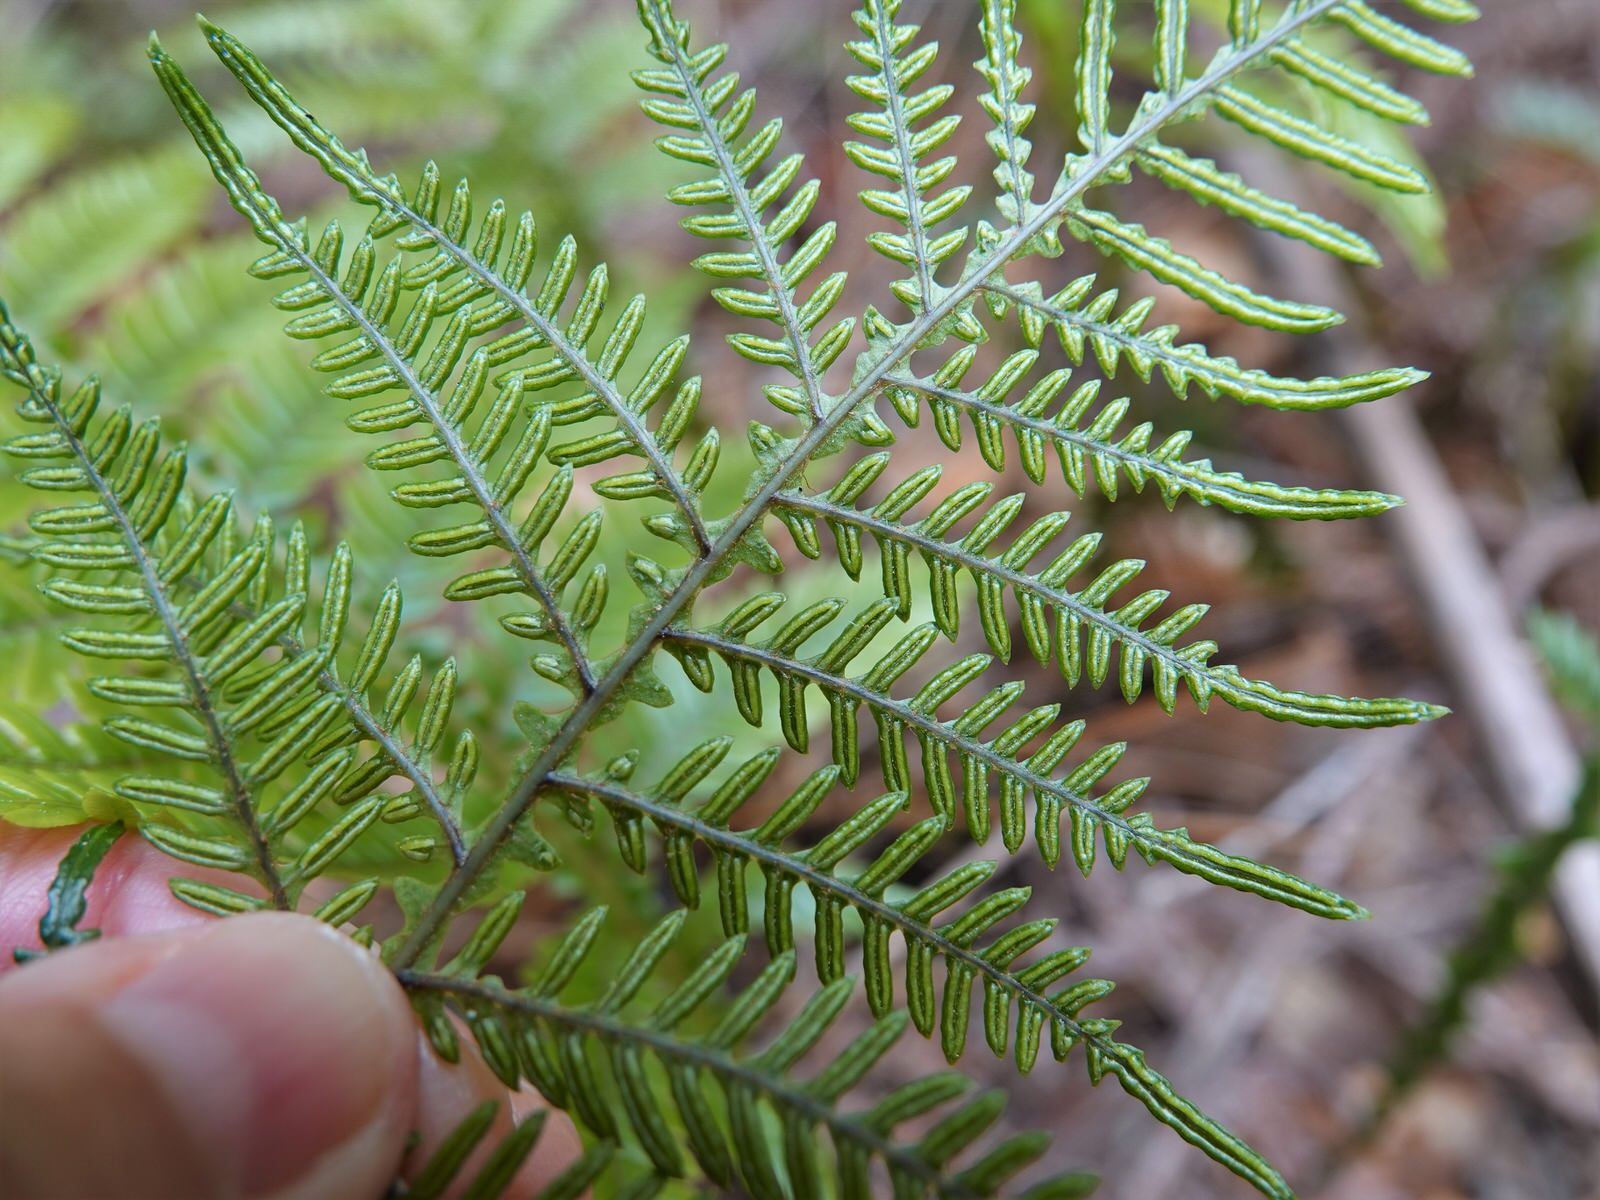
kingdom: Plantae
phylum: Tracheophyta
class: Polypodiopsida
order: Polypodiales
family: Blechnaceae
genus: Diploblechnum
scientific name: Diploblechnum fraseri
